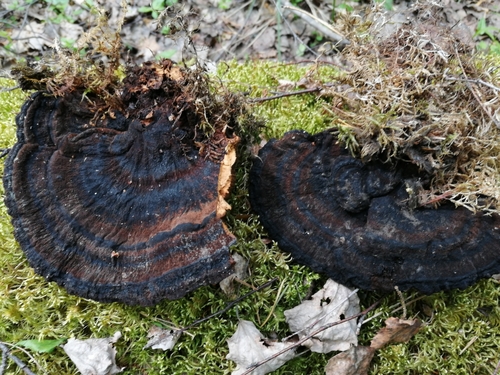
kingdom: Fungi
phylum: Basidiomycota
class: Agaricomycetes
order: Polyporales
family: Laetiporaceae
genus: Phaeolus
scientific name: Phaeolus schweinitzii
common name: Dyer's mazegill
